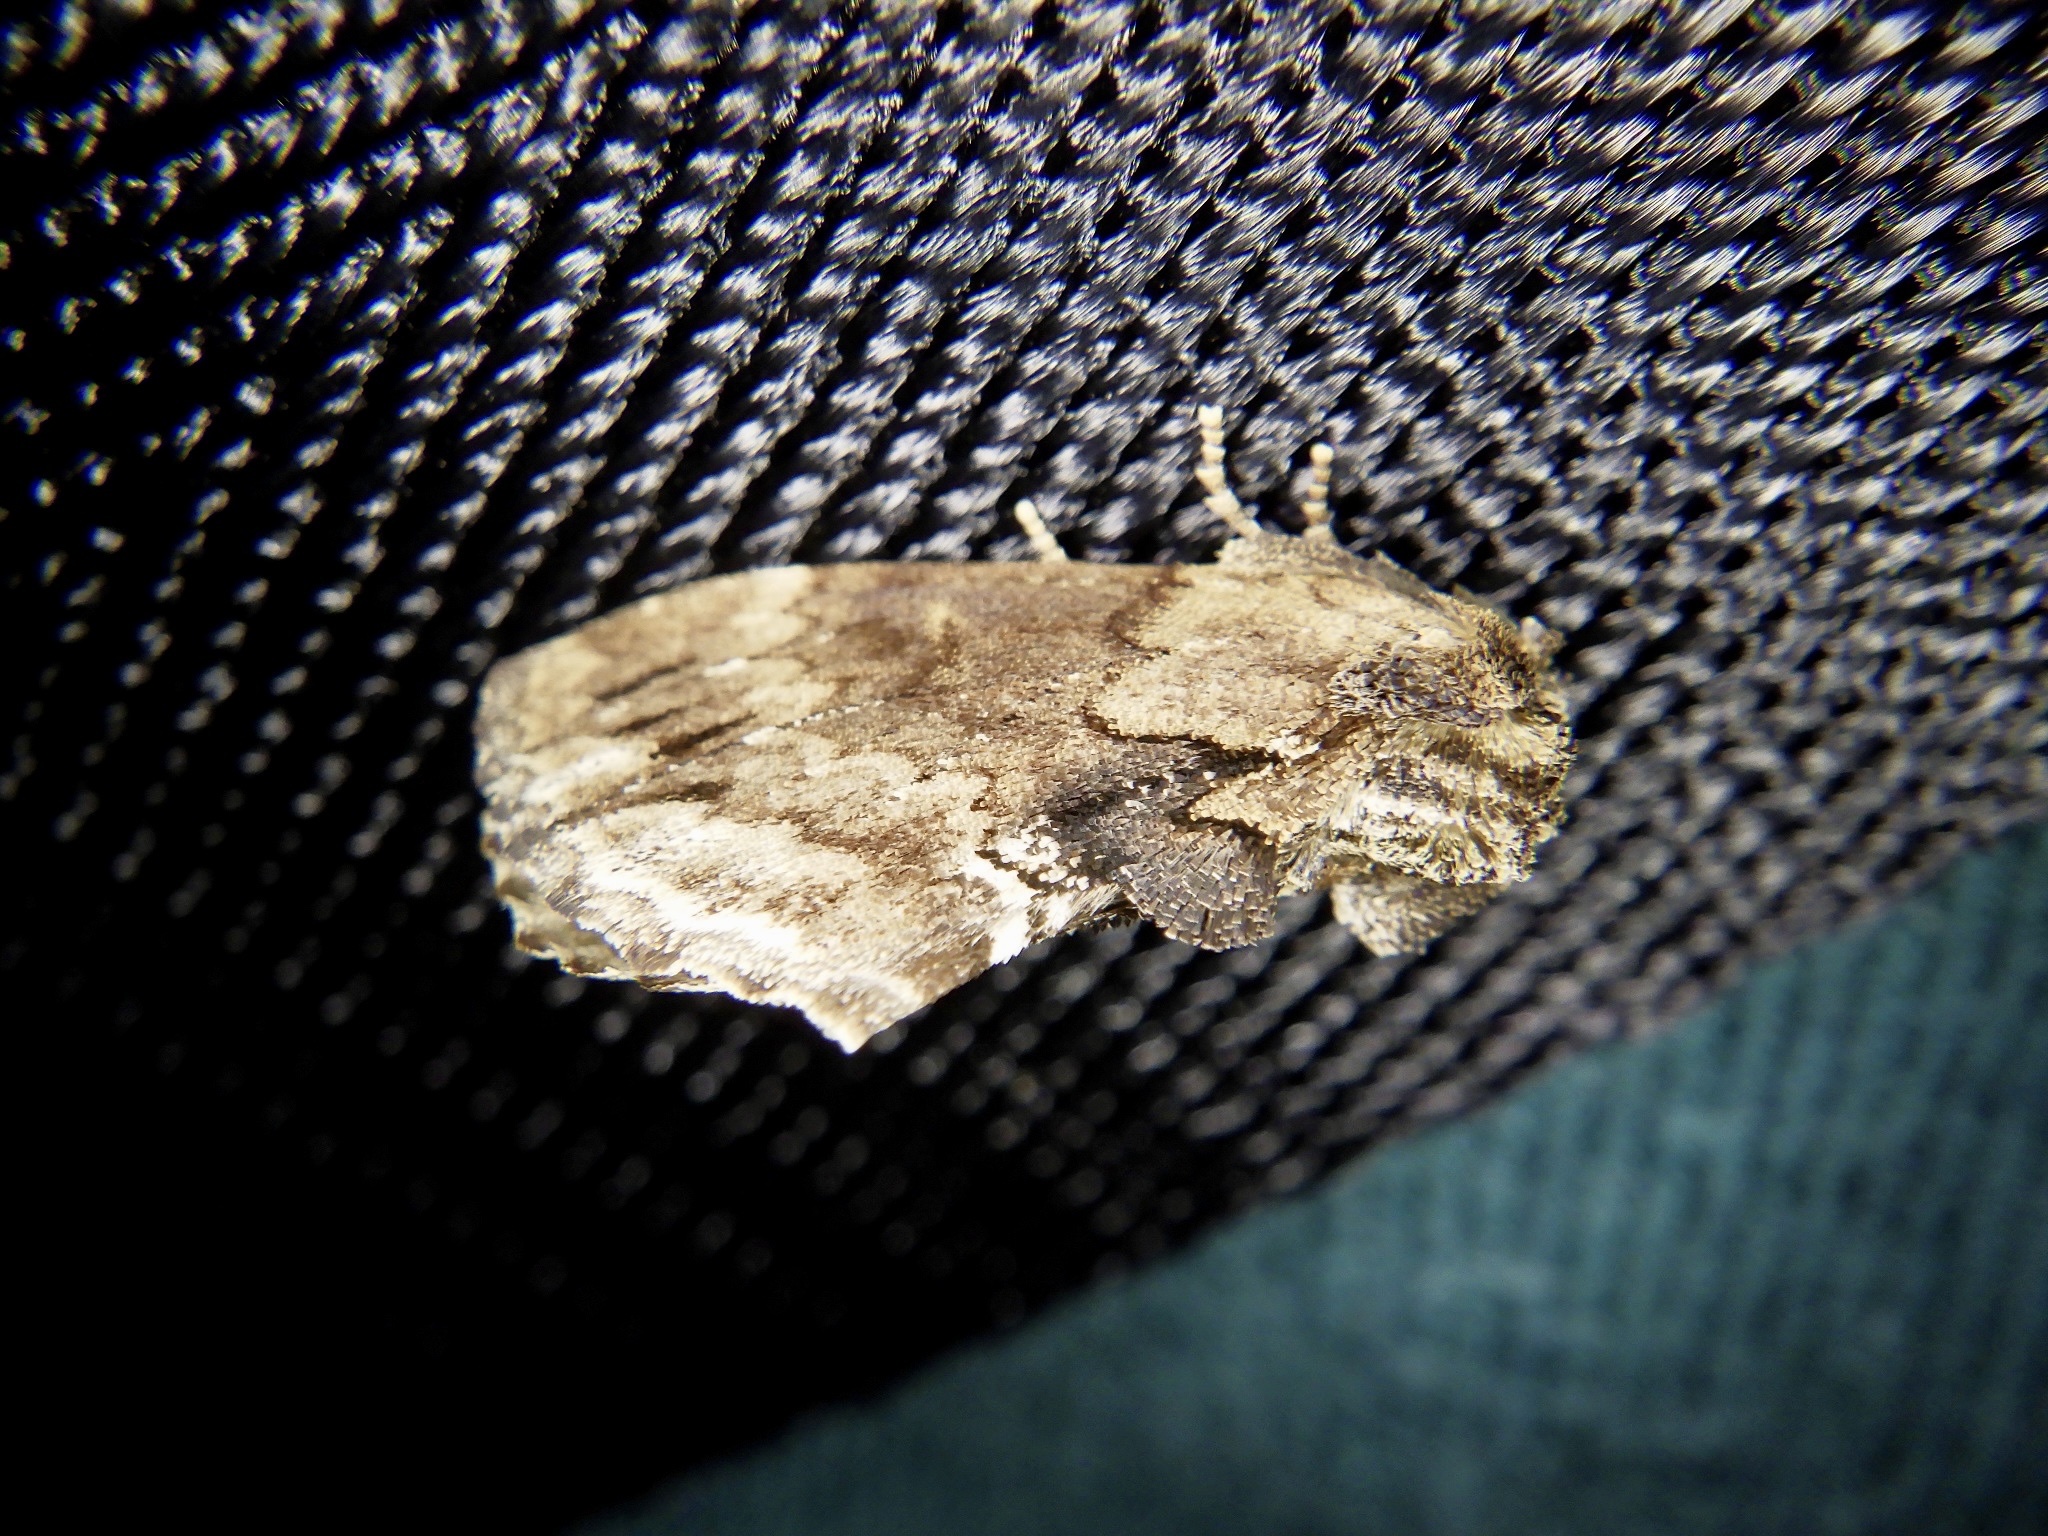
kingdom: Animalia
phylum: Arthropoda
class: Insecta
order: Lepidoptera
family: Notodontidae
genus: Lophontosia
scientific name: Lophontosia
